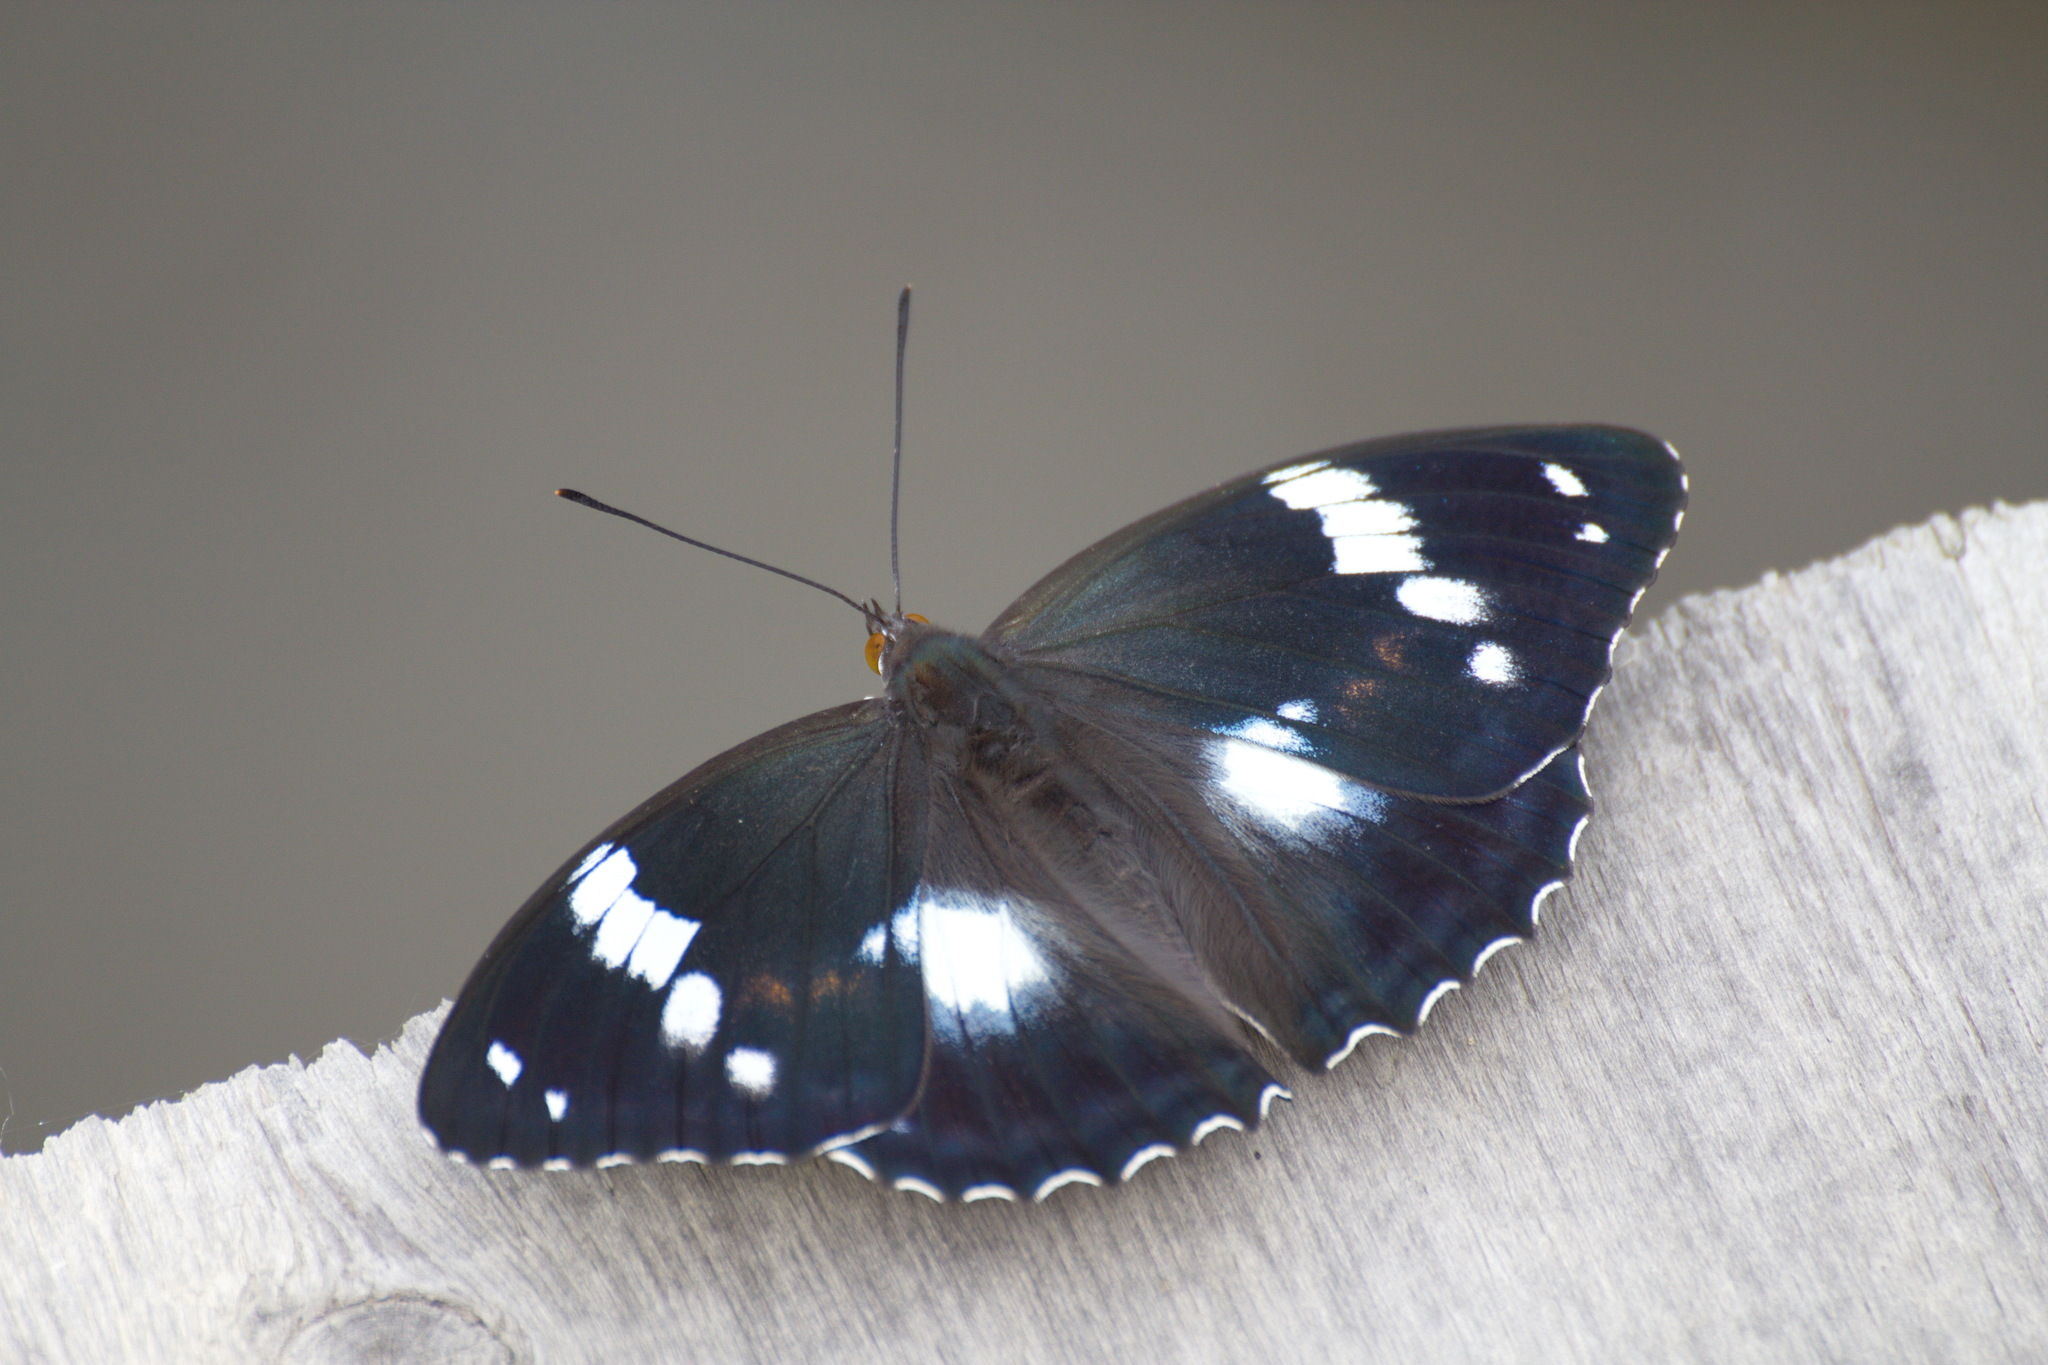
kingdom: Animalia
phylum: Arthropoda
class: Insecta
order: Lepidoptera
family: Nymphalidae
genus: Apatura
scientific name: Apatura Mimathyma schrencki
